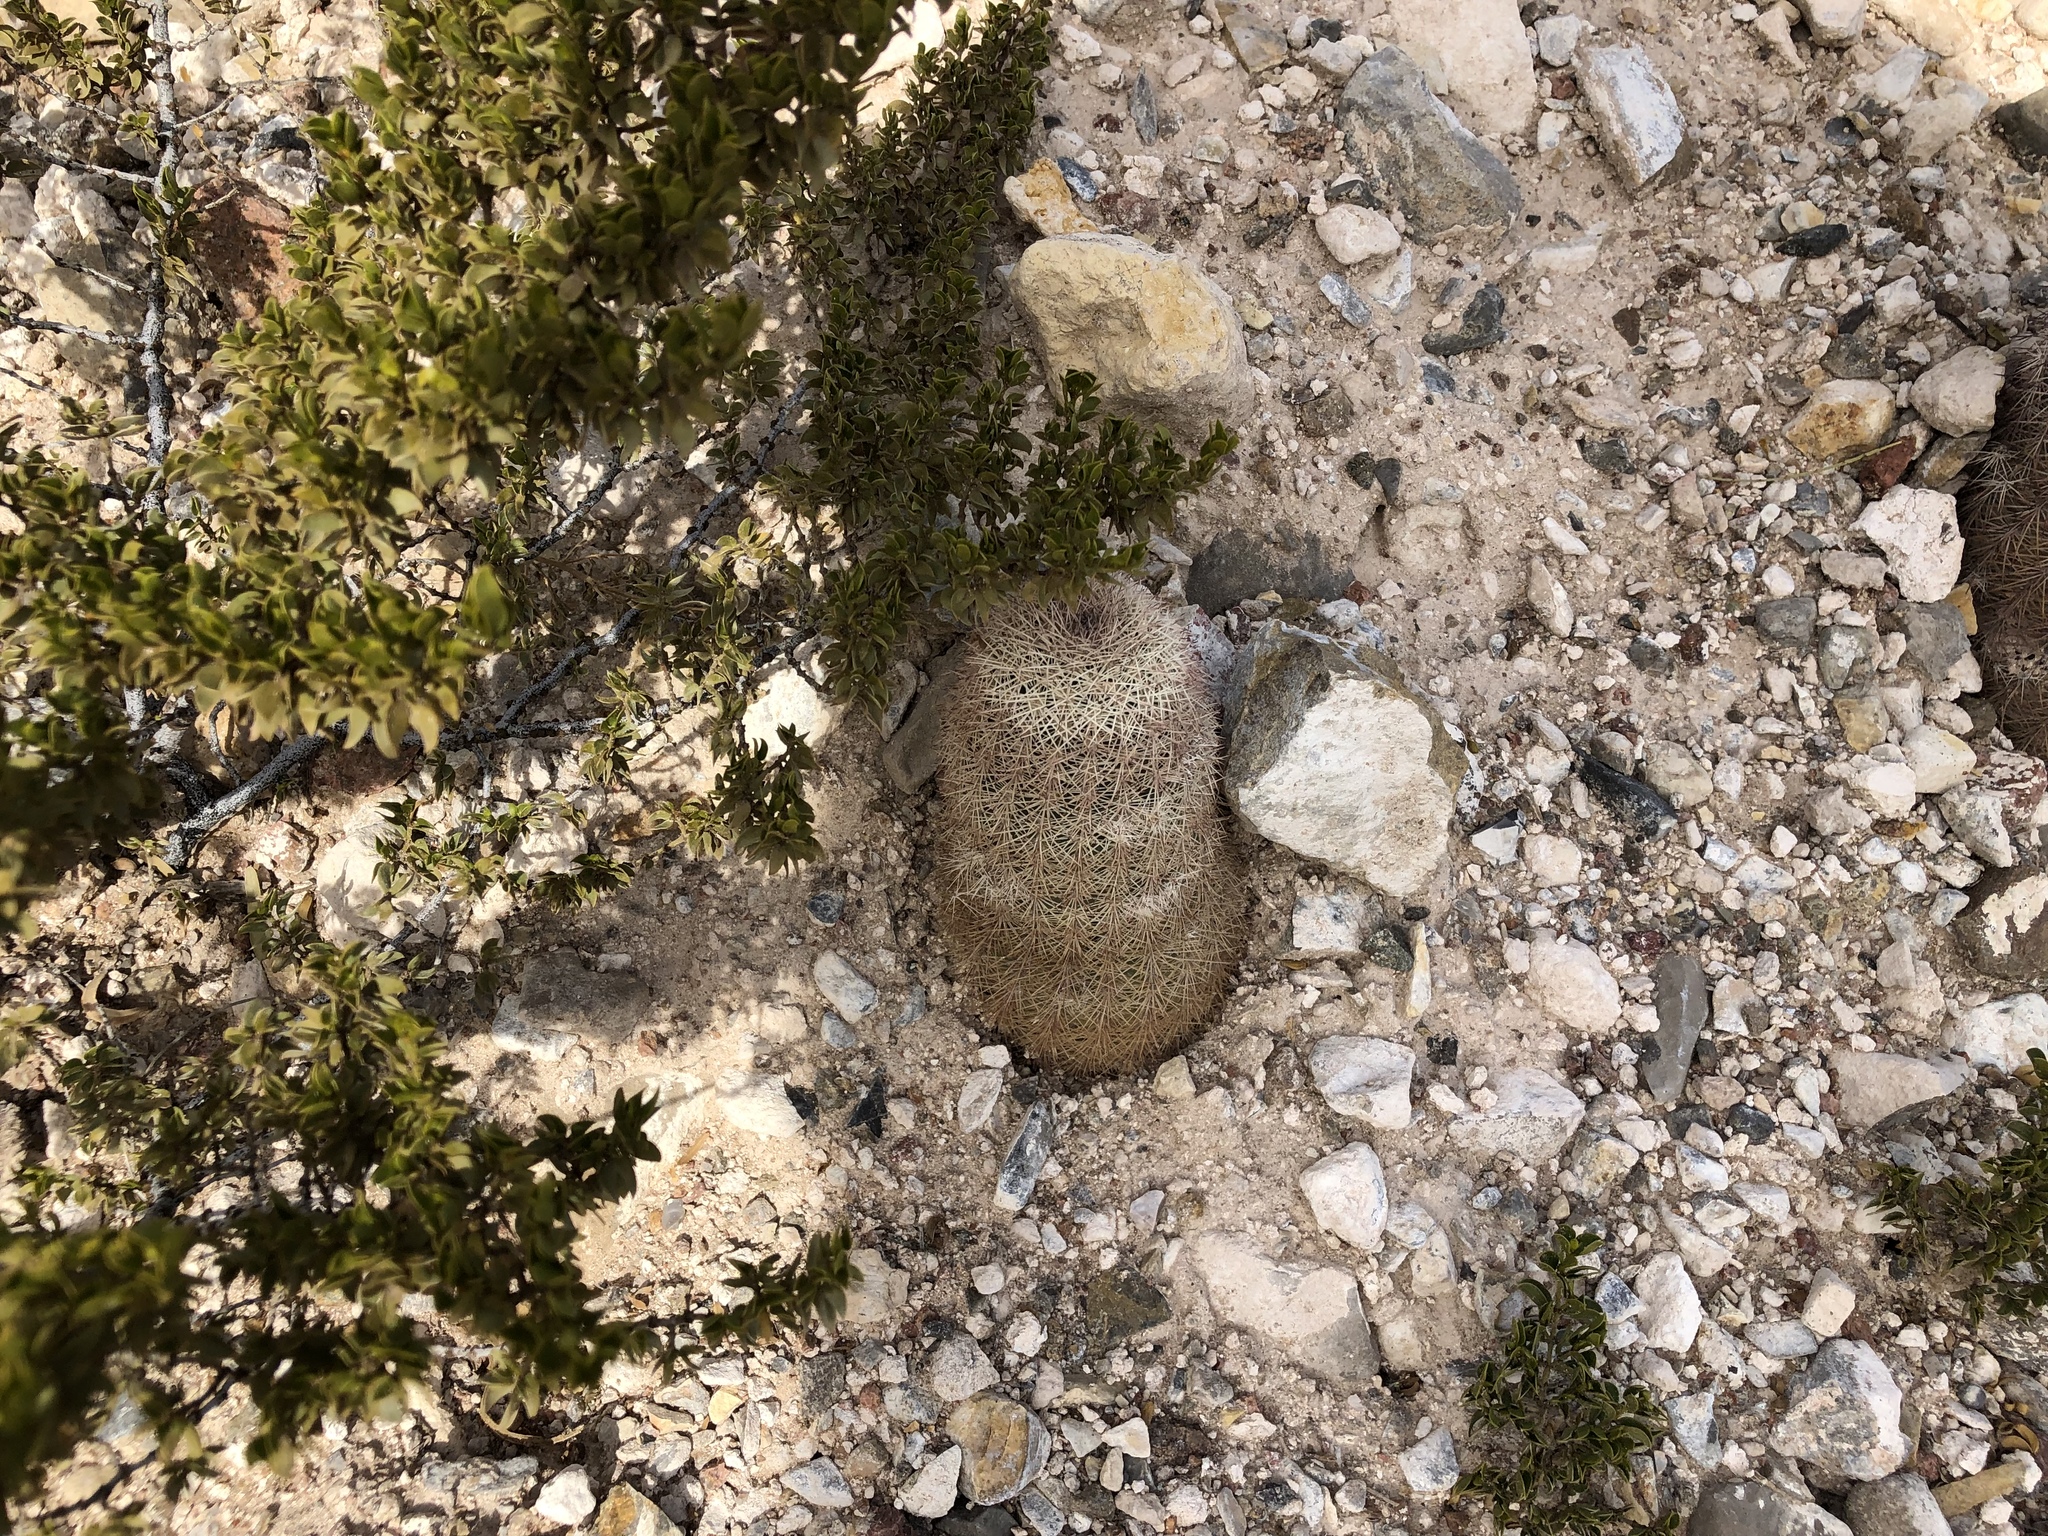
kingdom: Plantae
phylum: Tracheophyta
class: Magnoliopsida
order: Caryophyllales
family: Cactaceae
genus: Echinocereus
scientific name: Echinocereus dasyacanthus
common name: Spiny hedgehog cactus
